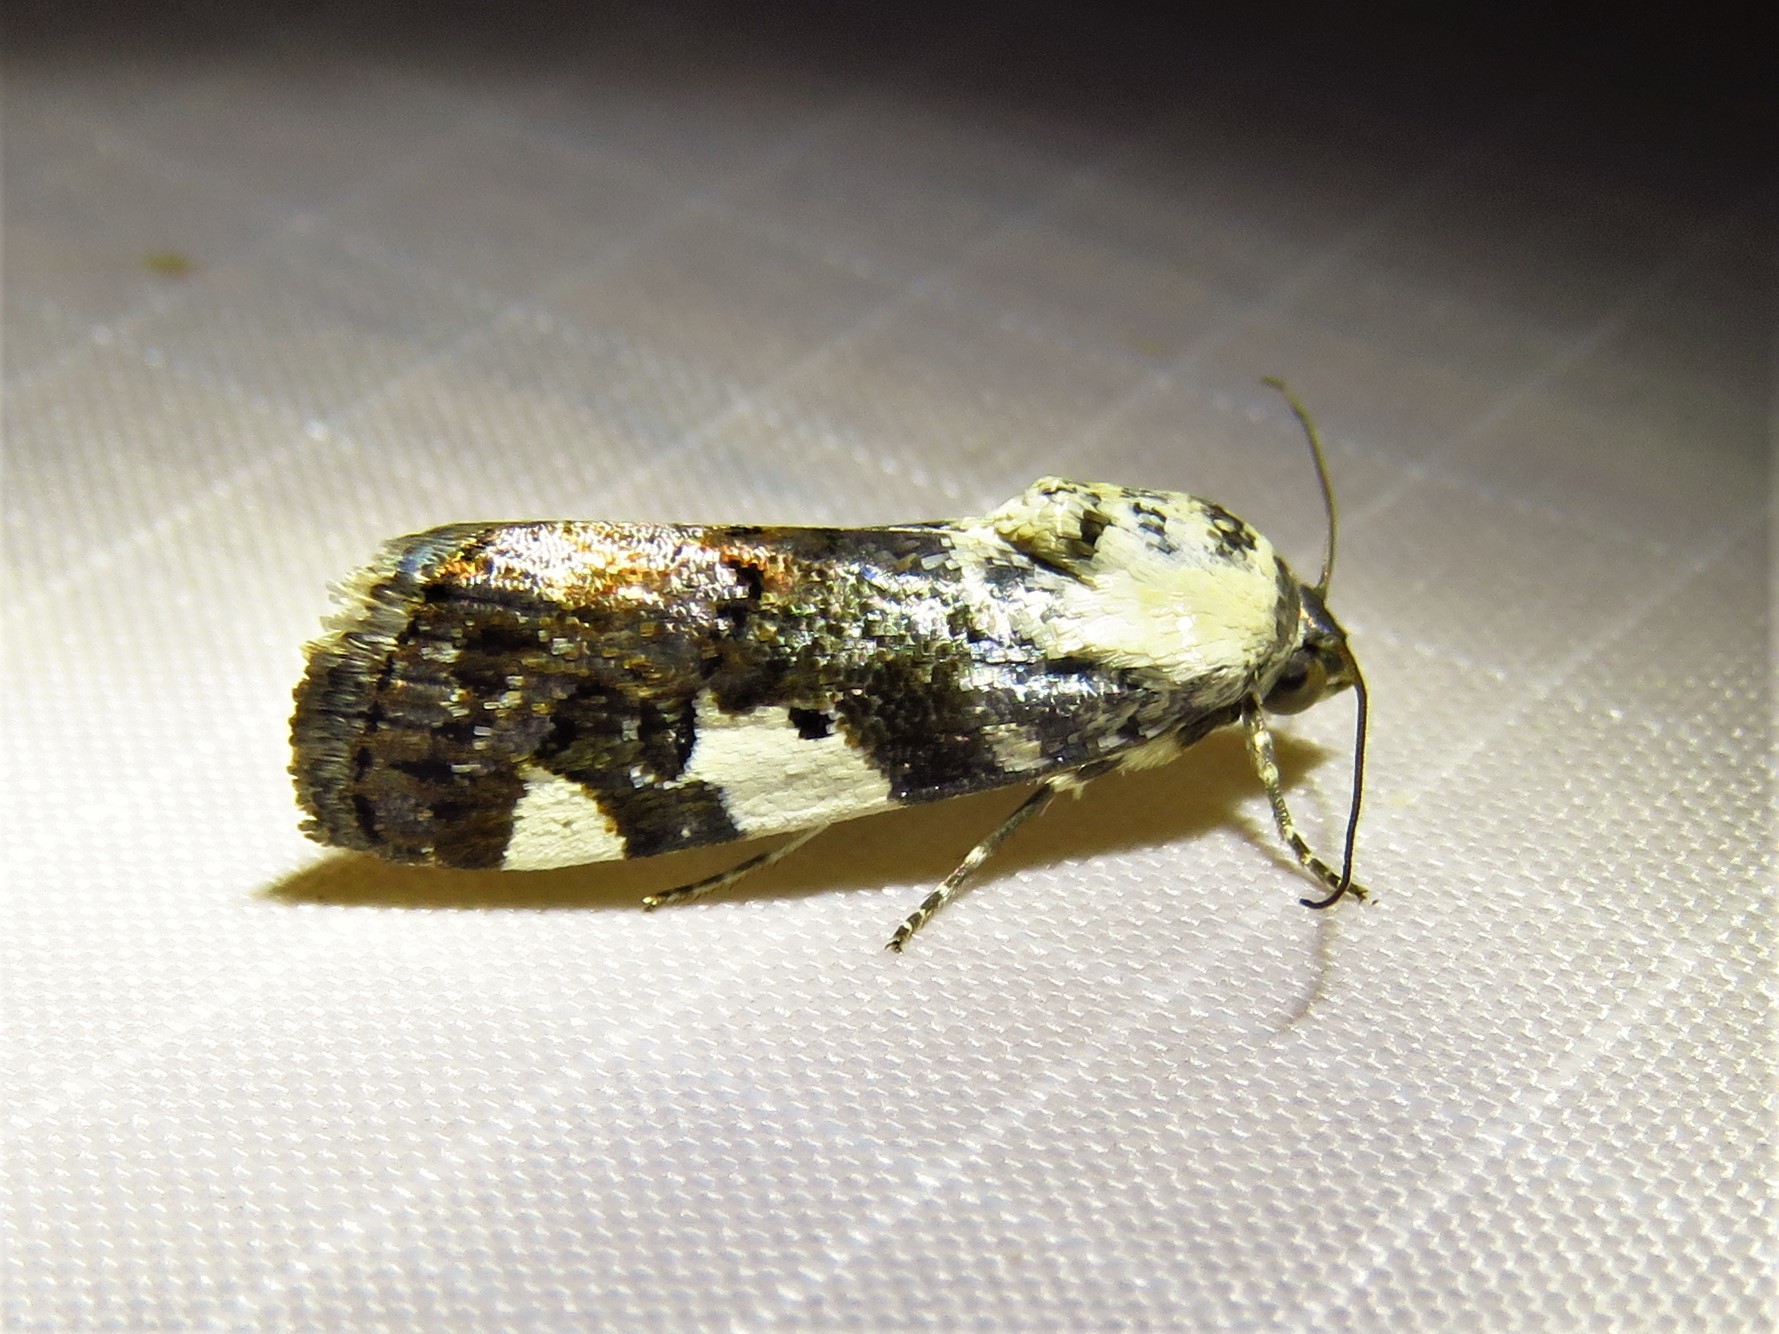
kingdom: Animalia
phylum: Arthropoda
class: Insecta
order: Lepidoptera
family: Noctuidae
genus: Acontia
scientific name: Acontia aprica
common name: Nun
